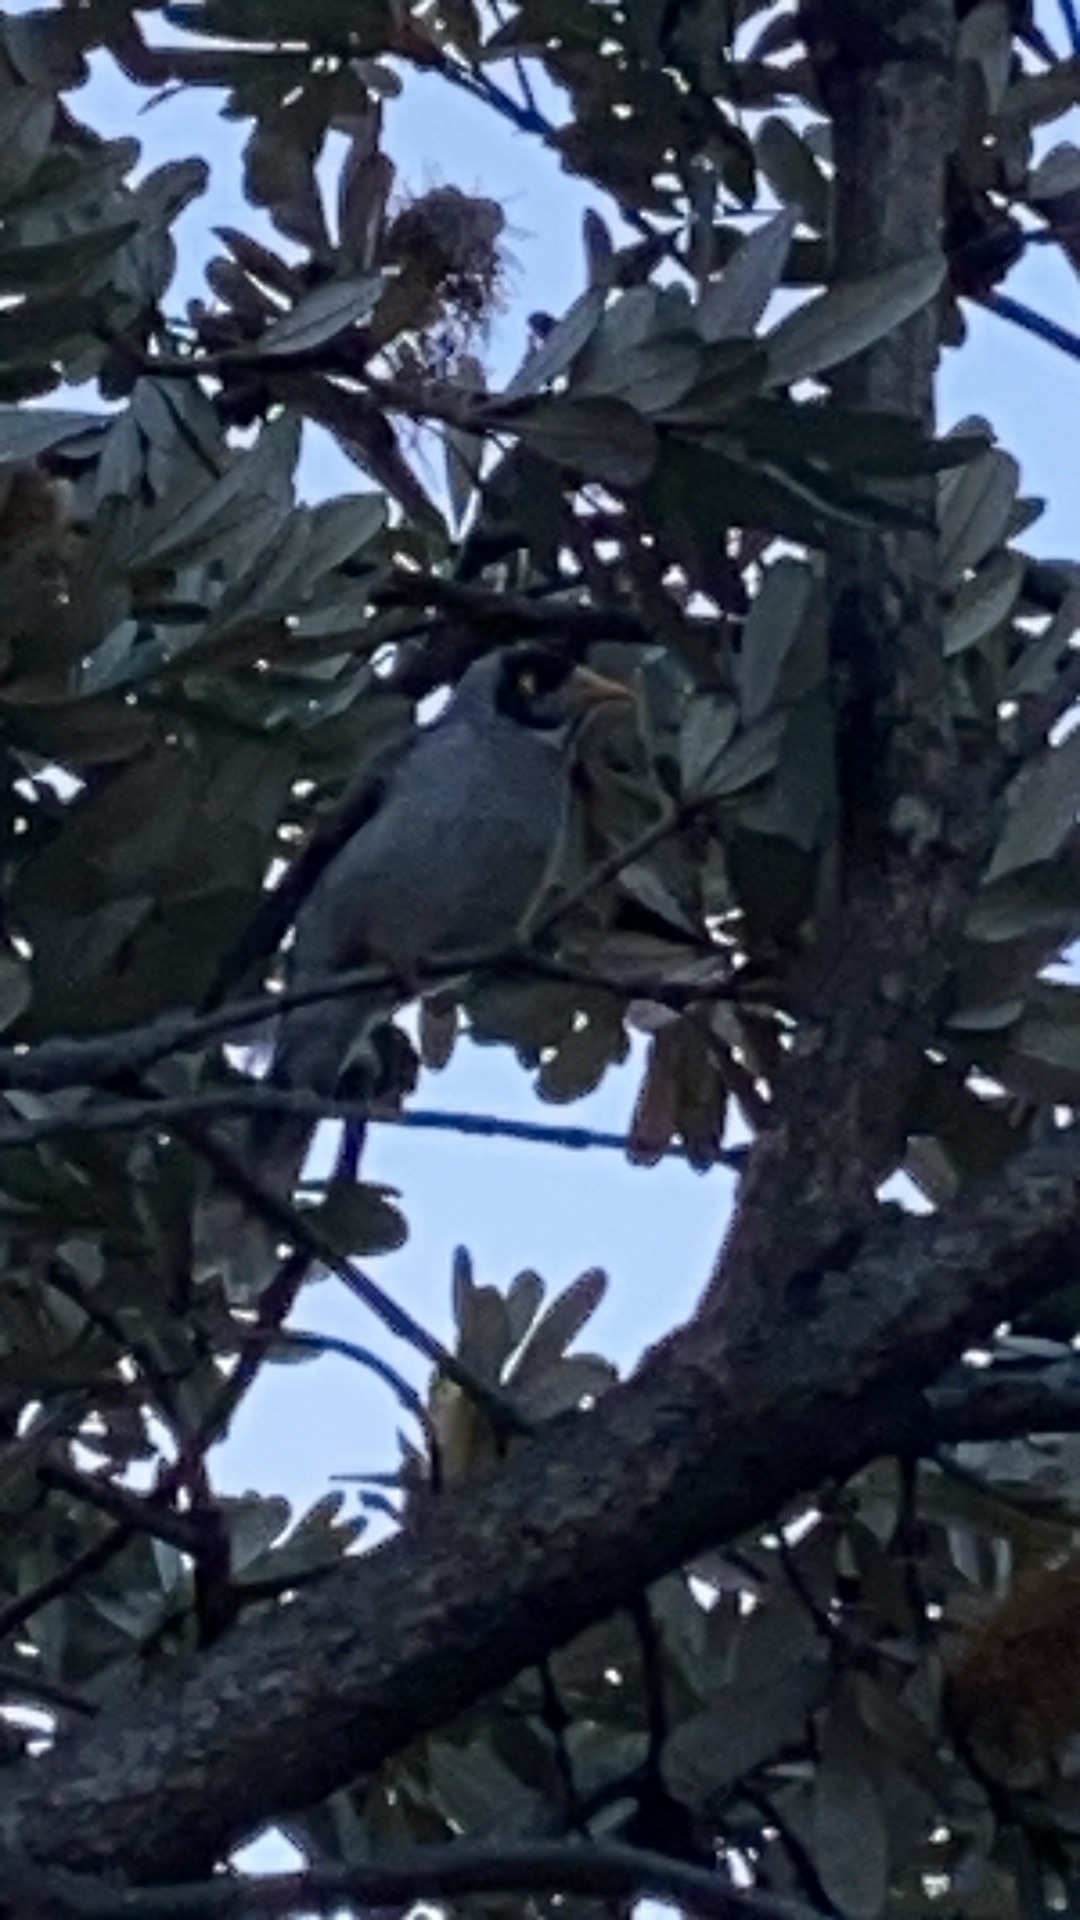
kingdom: Animalia
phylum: Chordata
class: Aves
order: Passeriformes
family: Meliphagidae
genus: Manorina
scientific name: Manorina melanocephala
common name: Noisy miner
